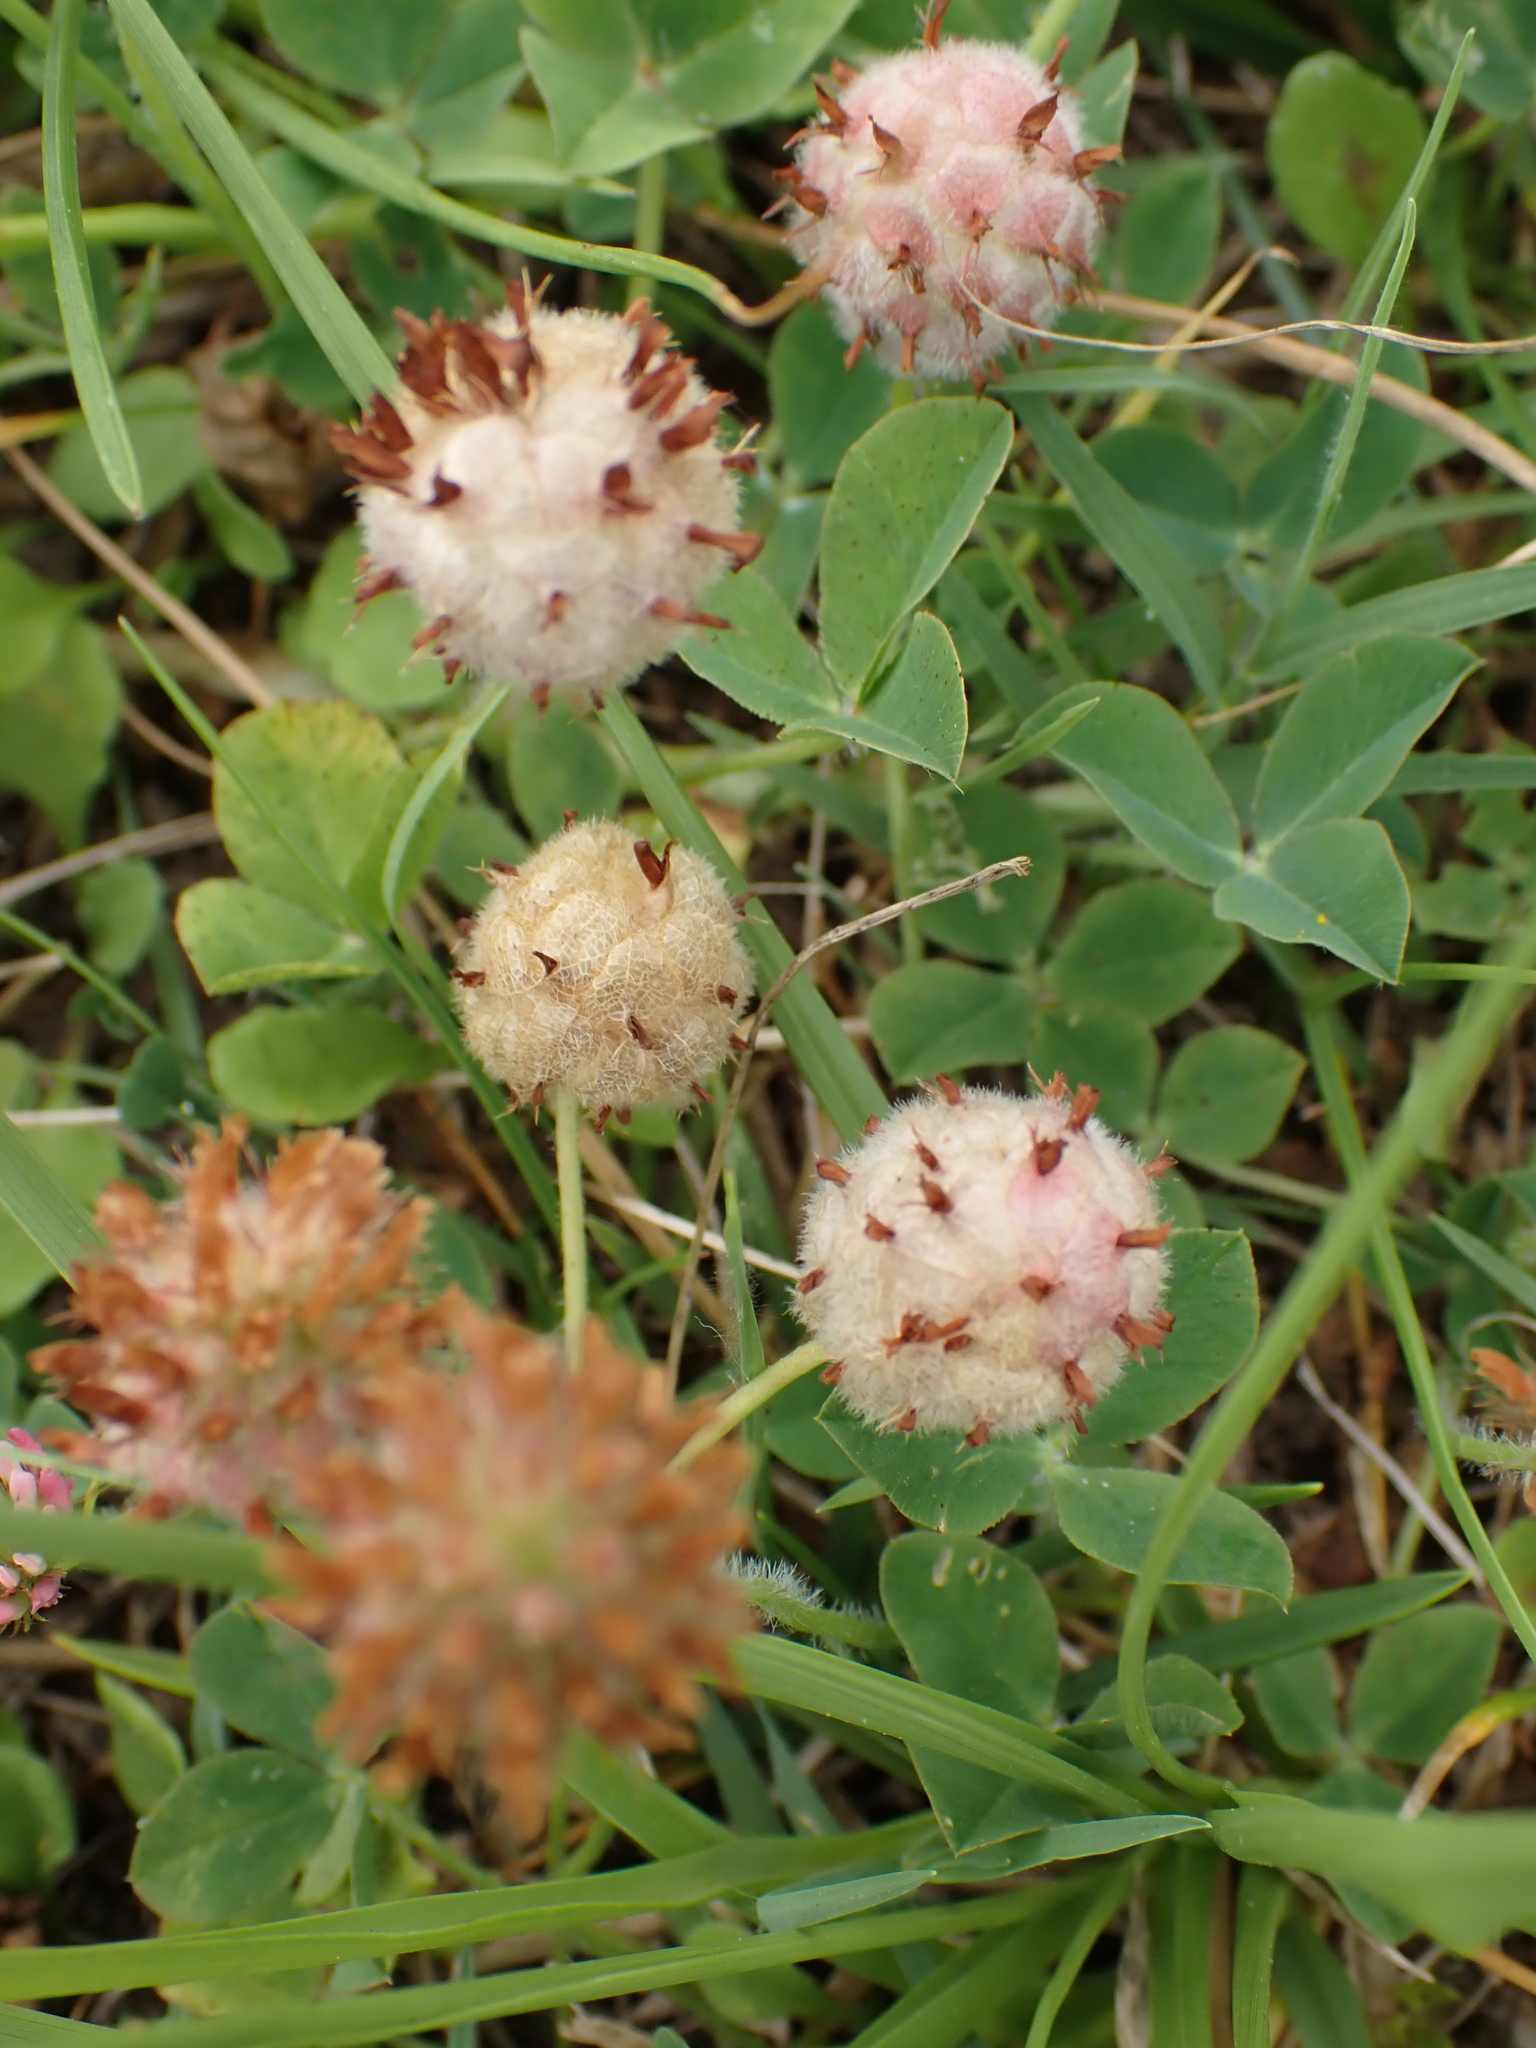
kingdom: Plantae
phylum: Tracheophyta
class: Magnoliopsida
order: Fabales
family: Fabaceae
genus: Trifolium
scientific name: Trifolium fragiferum
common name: Strawberry clover
